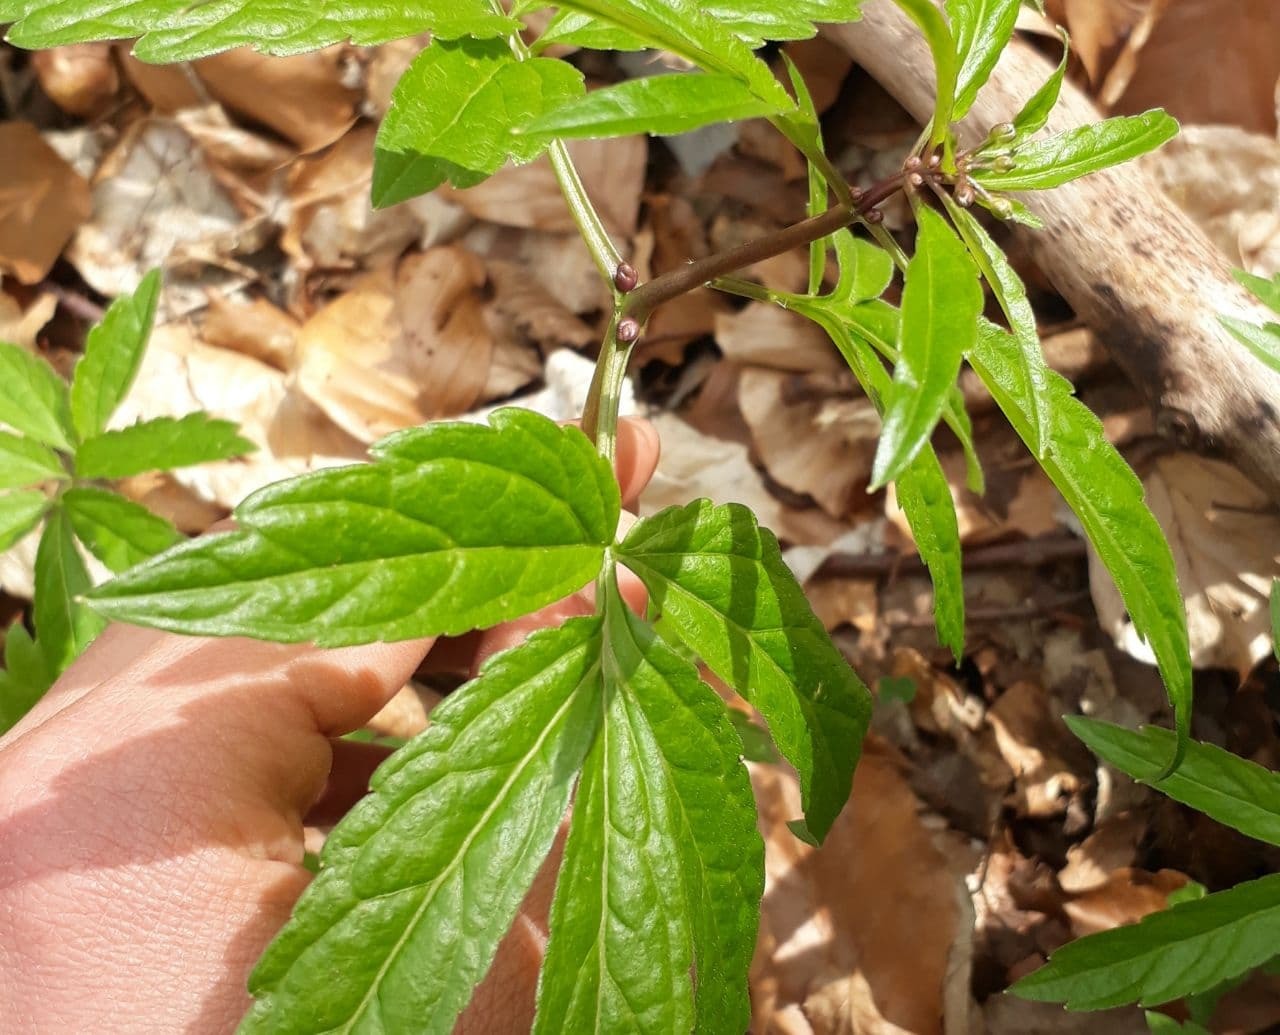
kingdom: Plantae
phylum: Tracheophyta
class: Magnoliopsida
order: Brassicales
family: Brassicaceae
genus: Cardamine
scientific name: Cardamine bulbifera
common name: Coralroot bittercress
